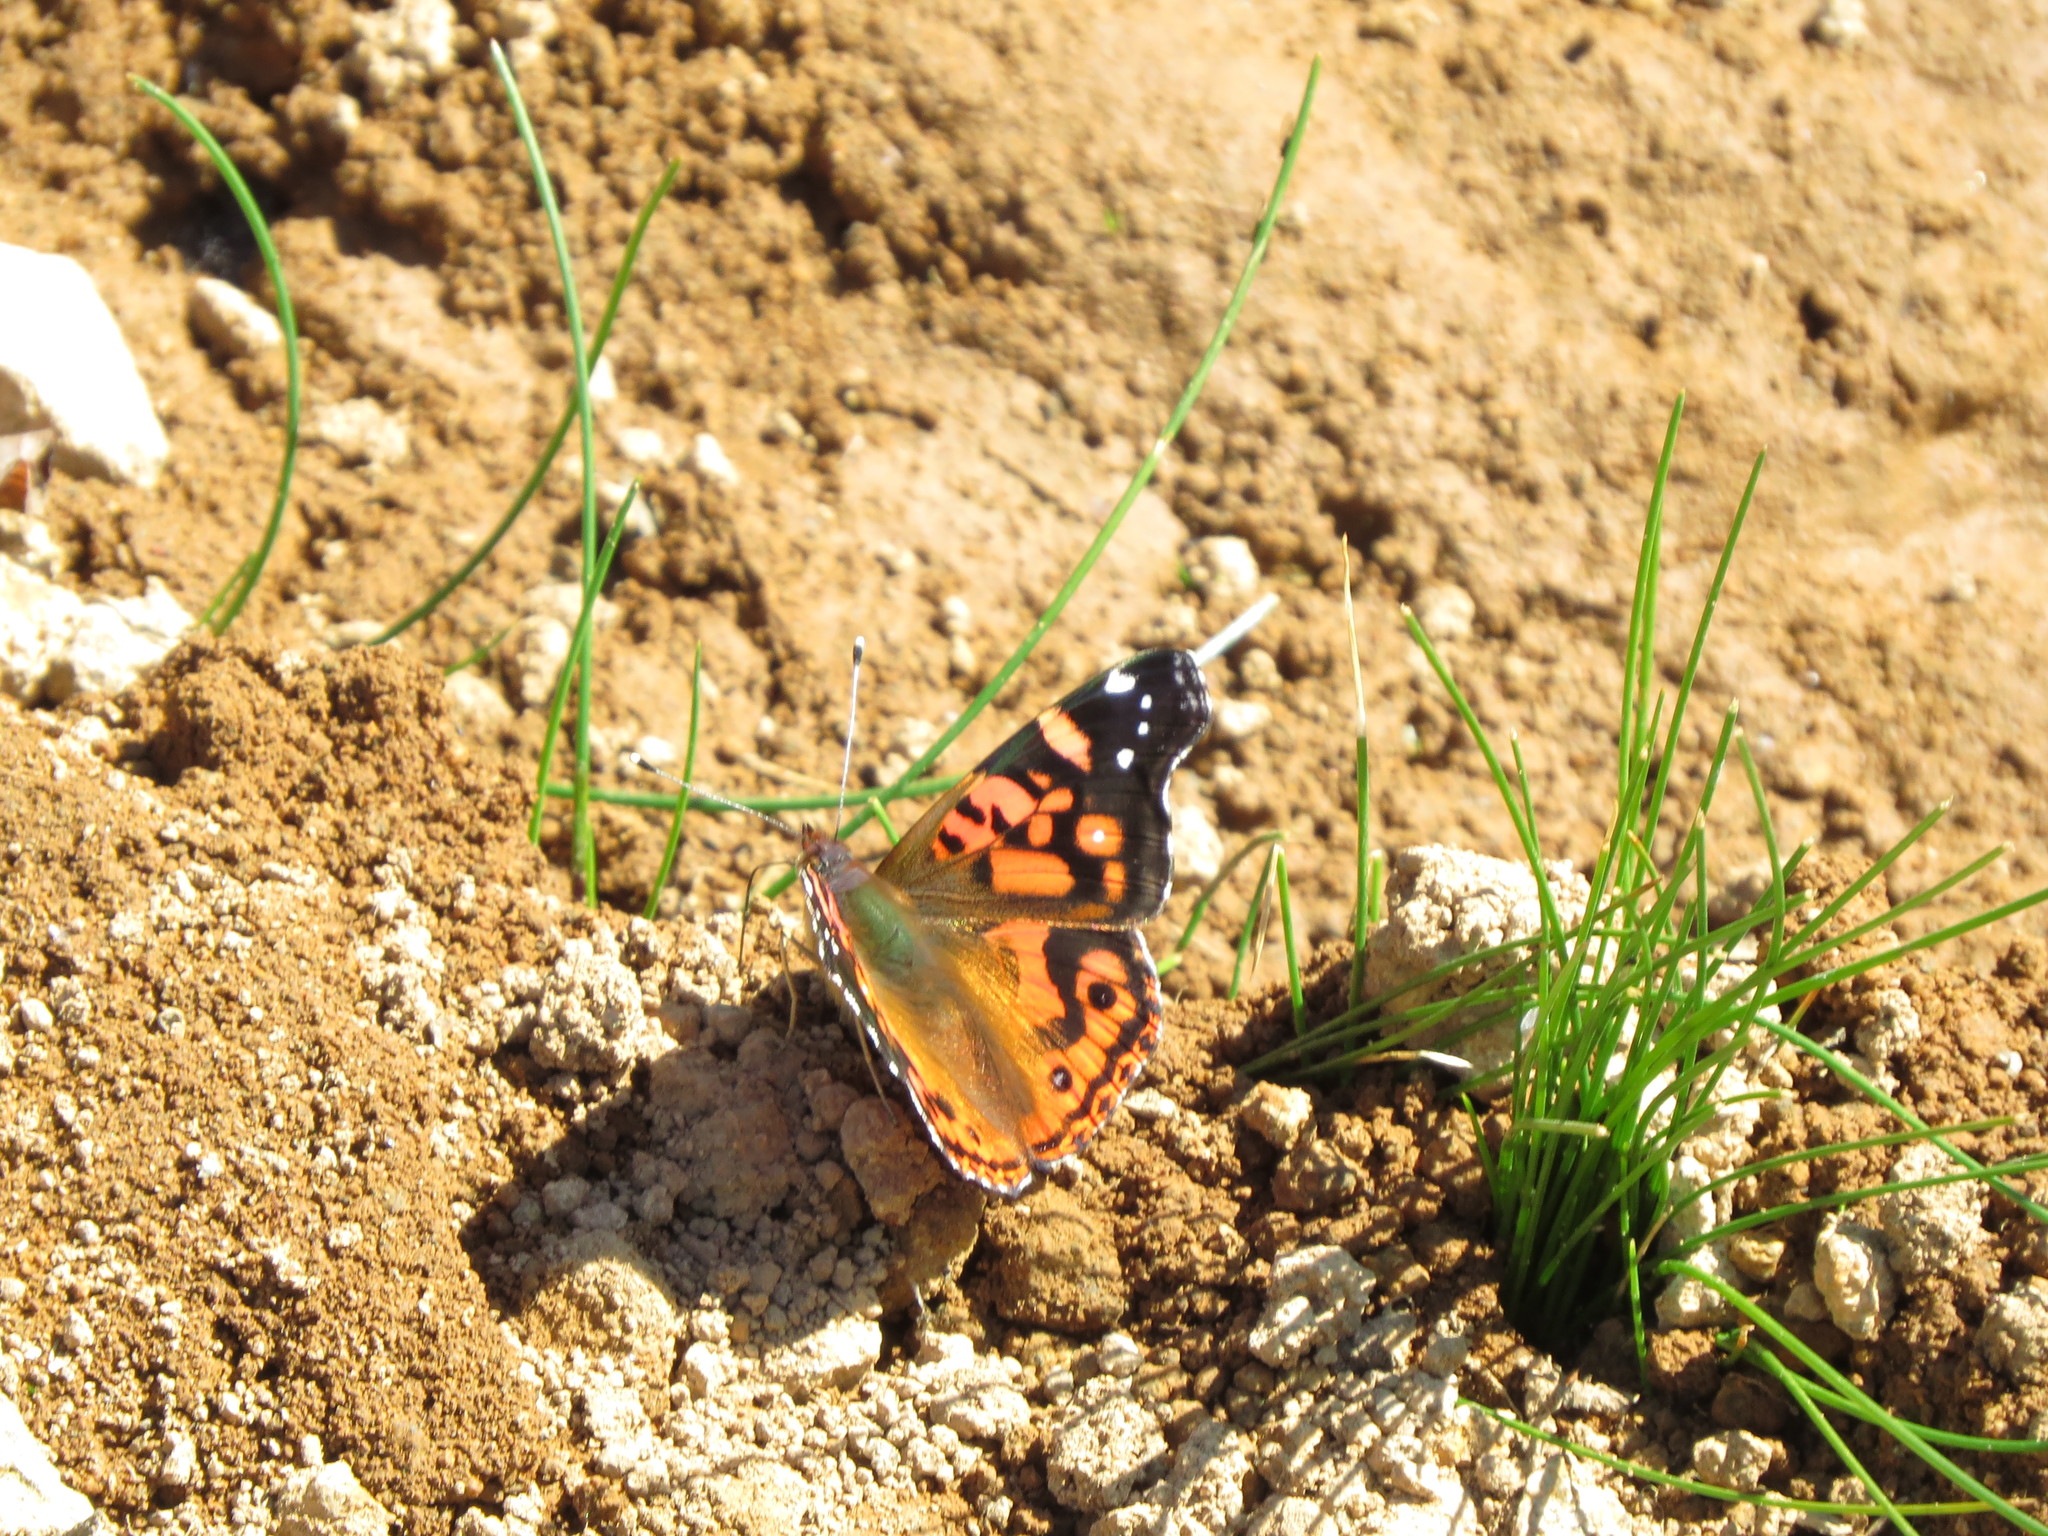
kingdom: Animalia
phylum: Arthropoda
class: Insecta
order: Lepidoptera
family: Nymphalidae
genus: Vanessa
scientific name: Vanessa terpsichore
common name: Chilean lady
